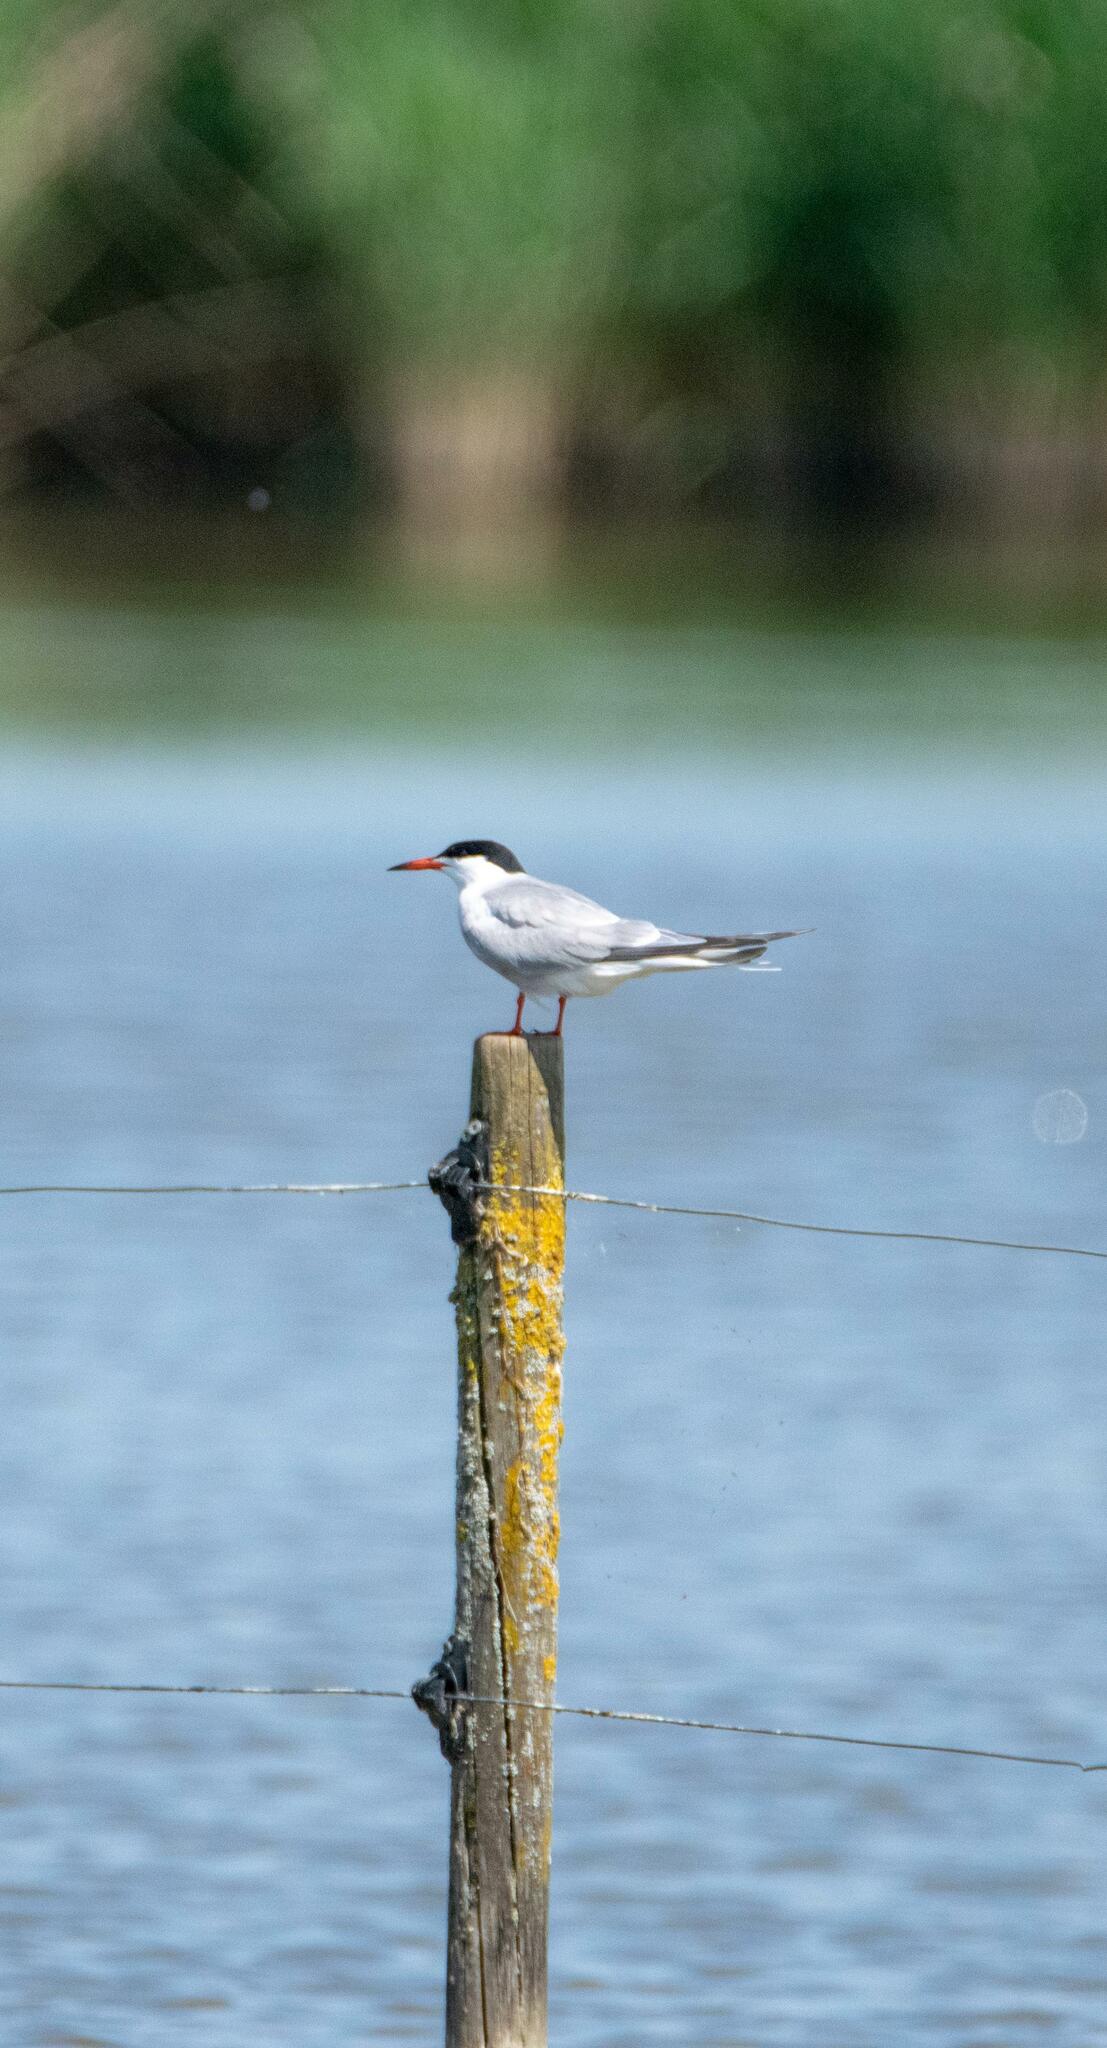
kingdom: Animalia
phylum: Chordata
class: Aves
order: Charadriiformes
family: Laridae
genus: Sterna
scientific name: Sterna hirundo
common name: Common tern
